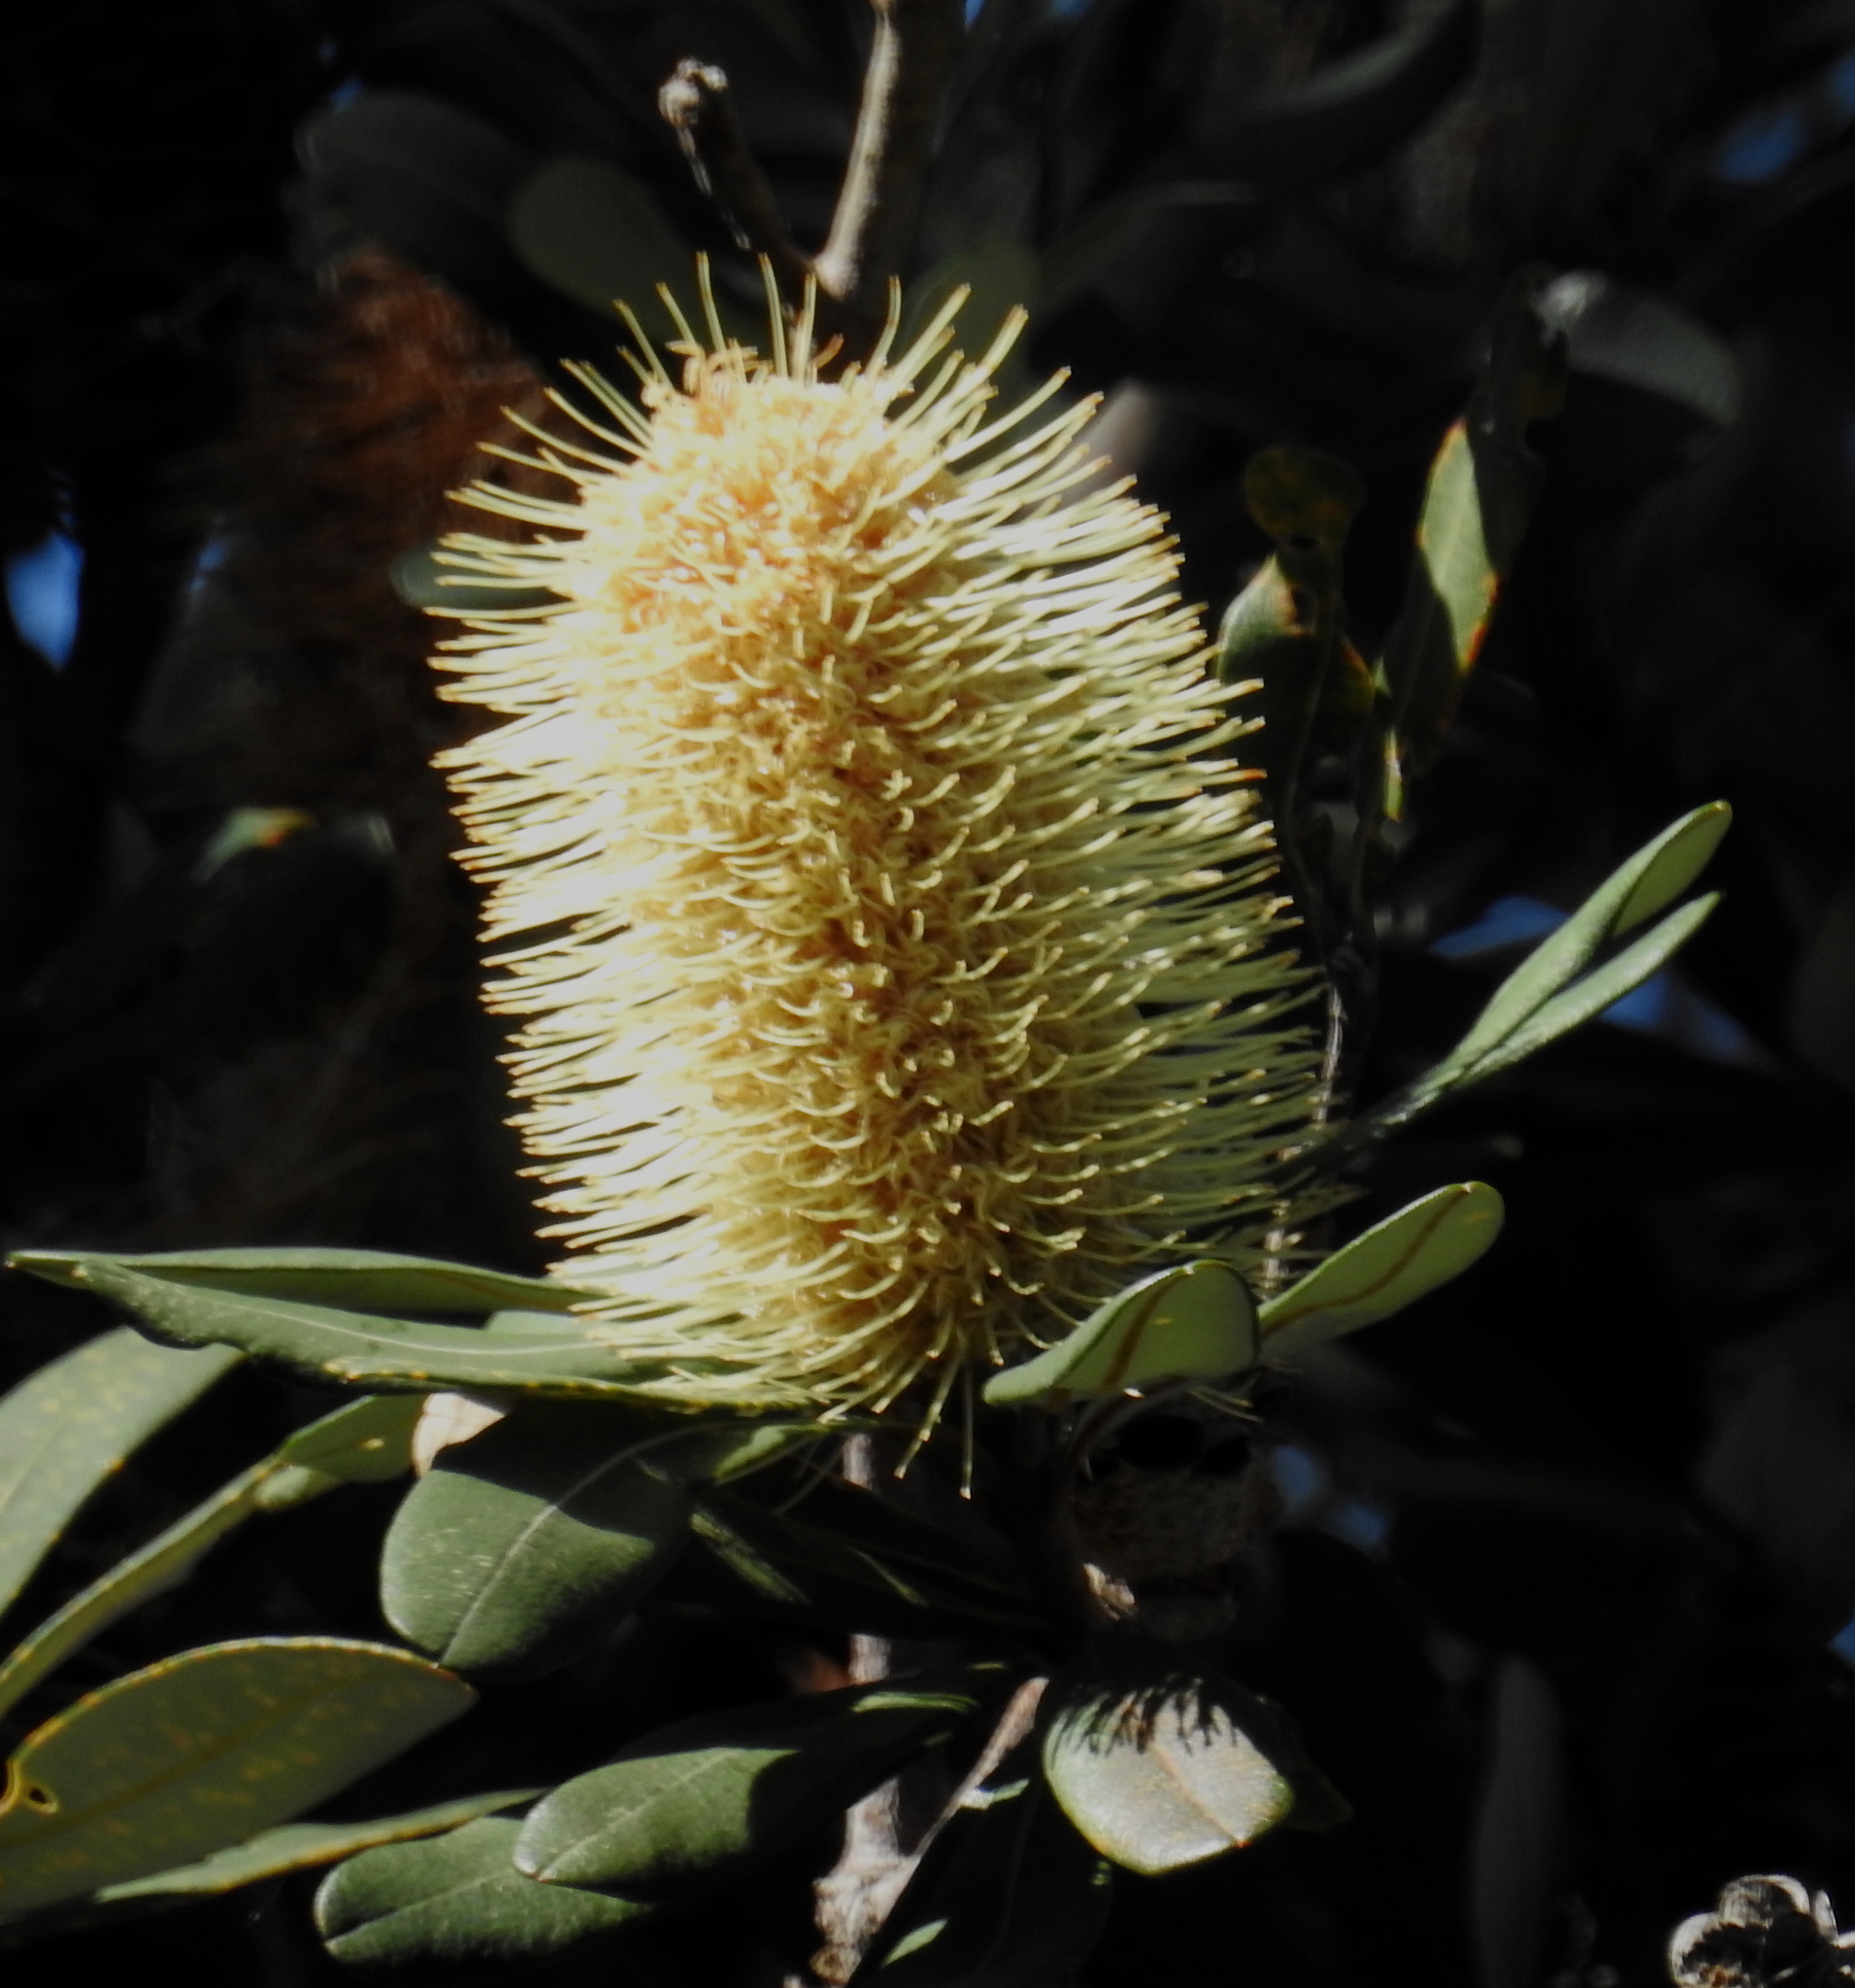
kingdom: Plantae
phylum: Tracheophyta
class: Magnoliopsida
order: Proteales
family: Proteaceae
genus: Banksia
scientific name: Banksia integrifolia
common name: White-honeysuckle
